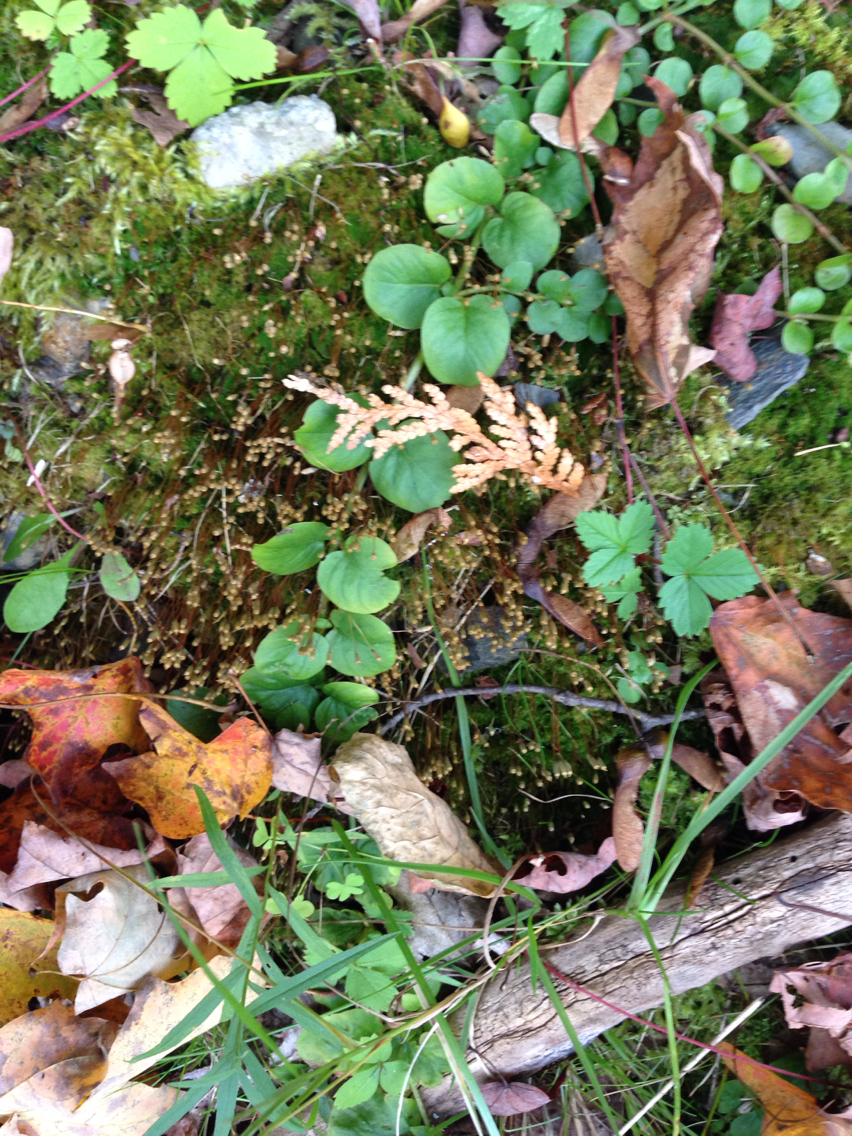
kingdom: Plantae
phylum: Tracheophyta
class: Magnoliopsida
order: Ericales
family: Primulaceae
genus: Lysimachia
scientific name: Lysimachia nummularia
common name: Moneywort
